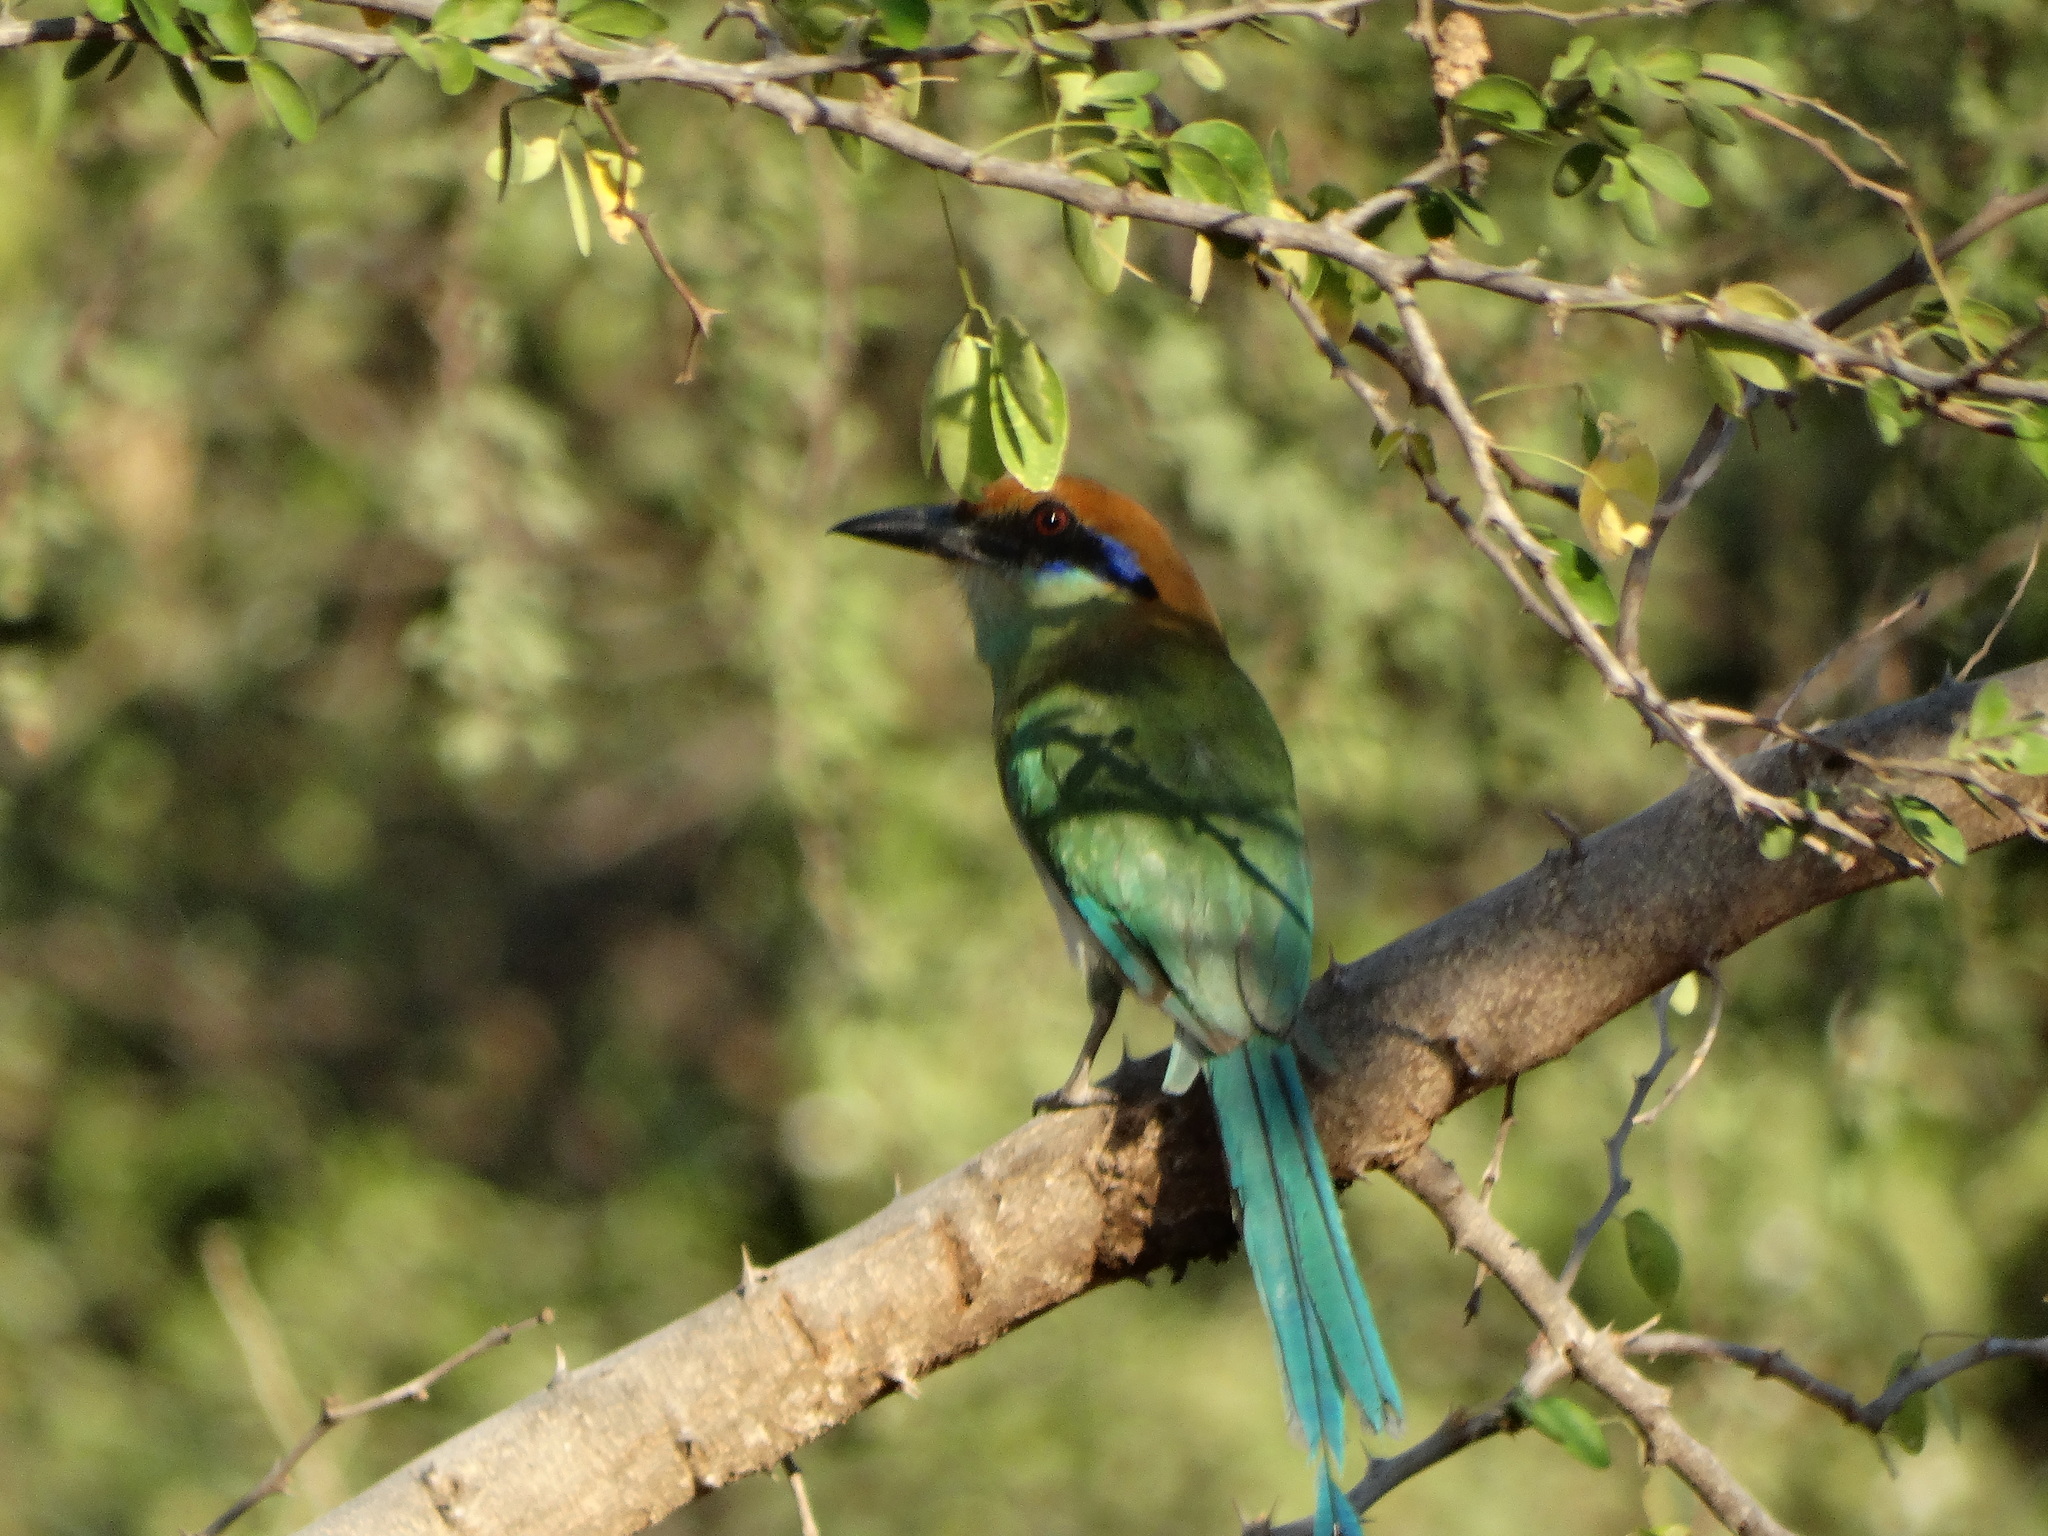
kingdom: Animalia
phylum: Chordata
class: Aves
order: Coraciiformes
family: Momotidae
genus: Momotus
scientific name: Momotus mexicanus
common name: Russet-crowned motmot
